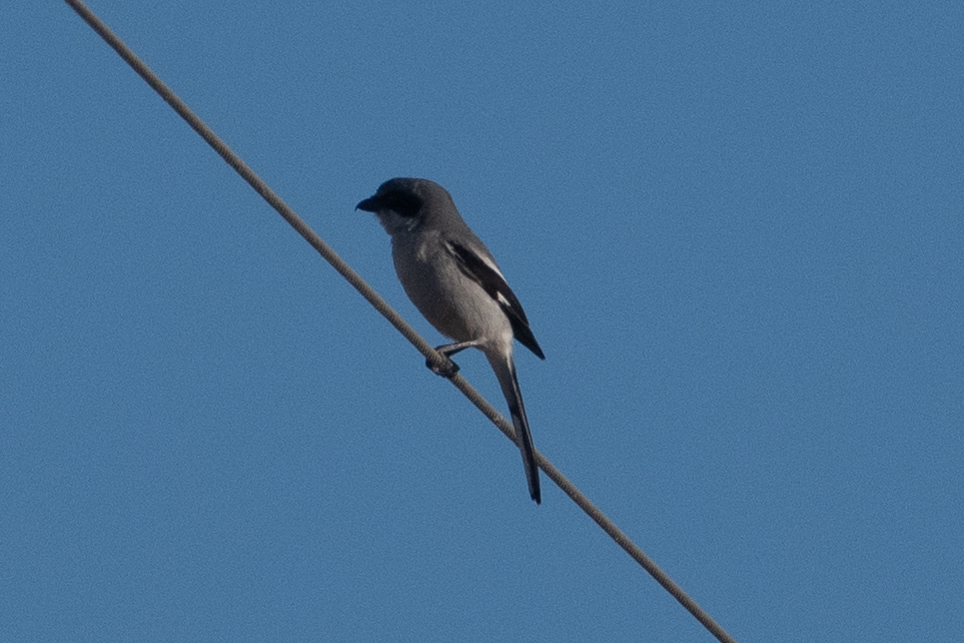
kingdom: Animalia
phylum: Chordata
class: Aves
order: Passeriformes
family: Laniidae
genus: Lanius
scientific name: Lanius ludovicianus
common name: Loggerhead shrike
